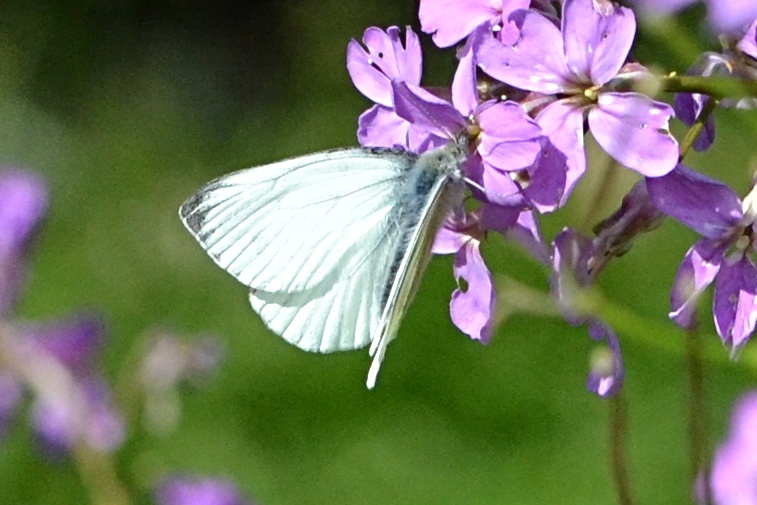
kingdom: Animalia
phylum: Arthropoda
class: Insecta
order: Lepidoptera
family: Pieridae
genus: Pieris
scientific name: Pieris napi
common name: Green-veined white
